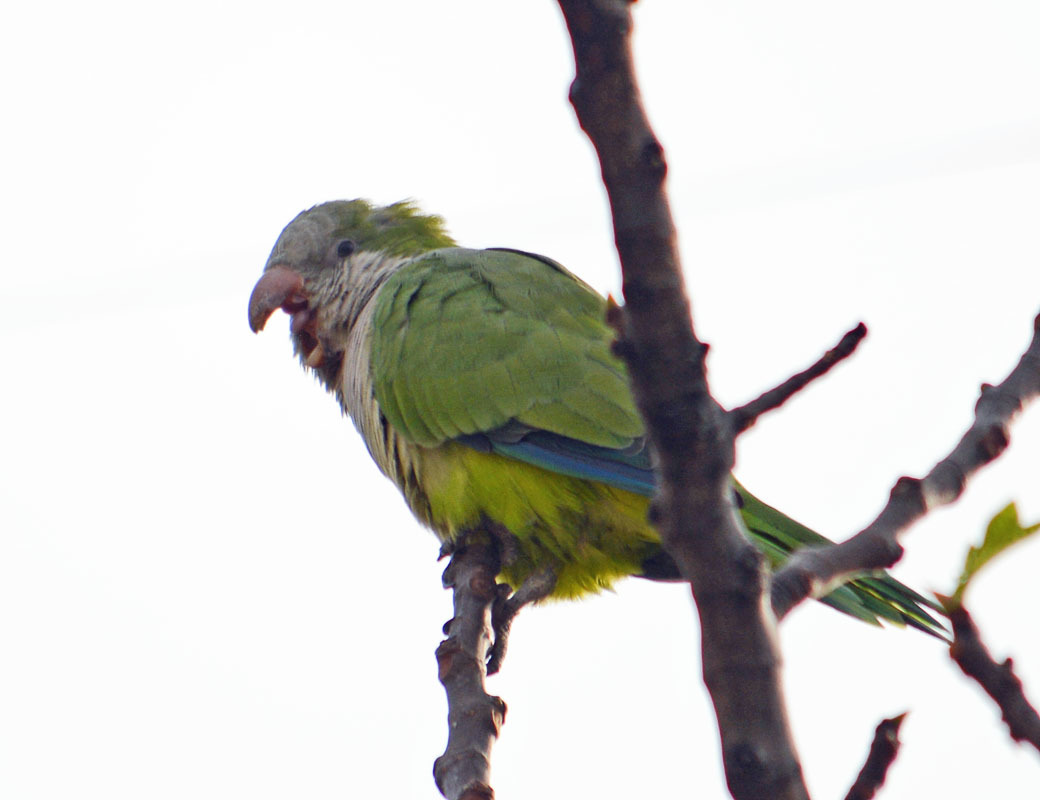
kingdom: Animalia
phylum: Chordata
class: Aves
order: Psittaciformes
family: Psittacidae
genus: Myiopsitta
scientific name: Myiopsitta monachus
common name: Monk parakeet
